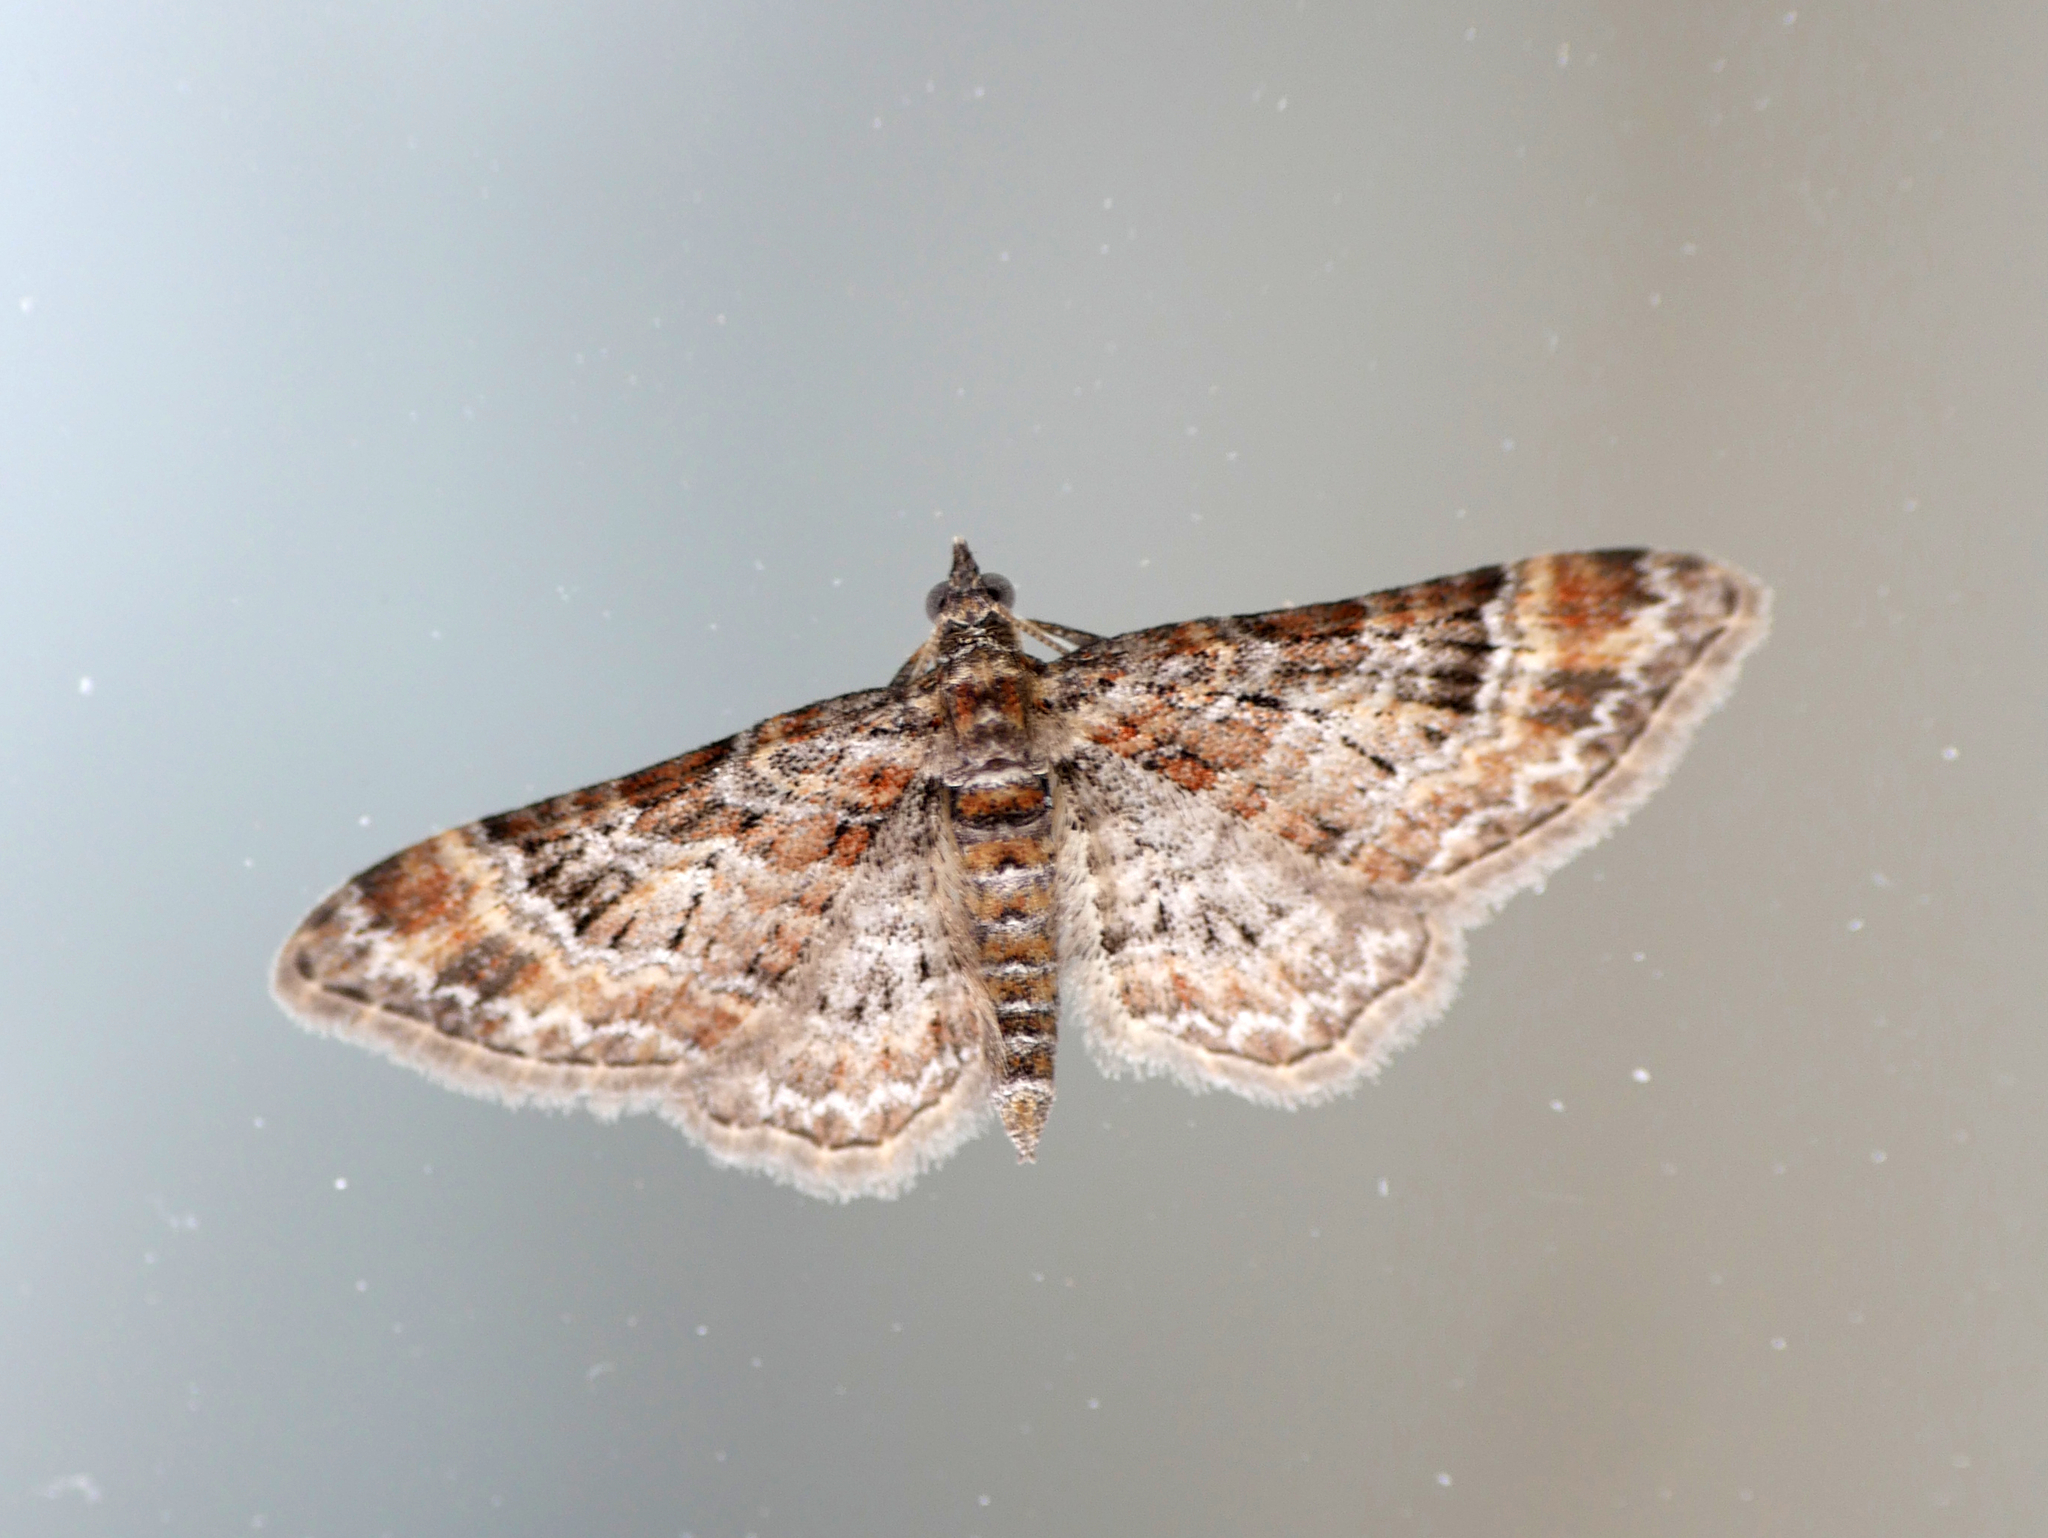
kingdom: Animalia
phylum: Arthropoda
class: Insecta
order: Lepidoptera
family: Geometridae
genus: Gymnoscelis
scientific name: Gymnoscelis rufifasciata
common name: Double-striped pug
